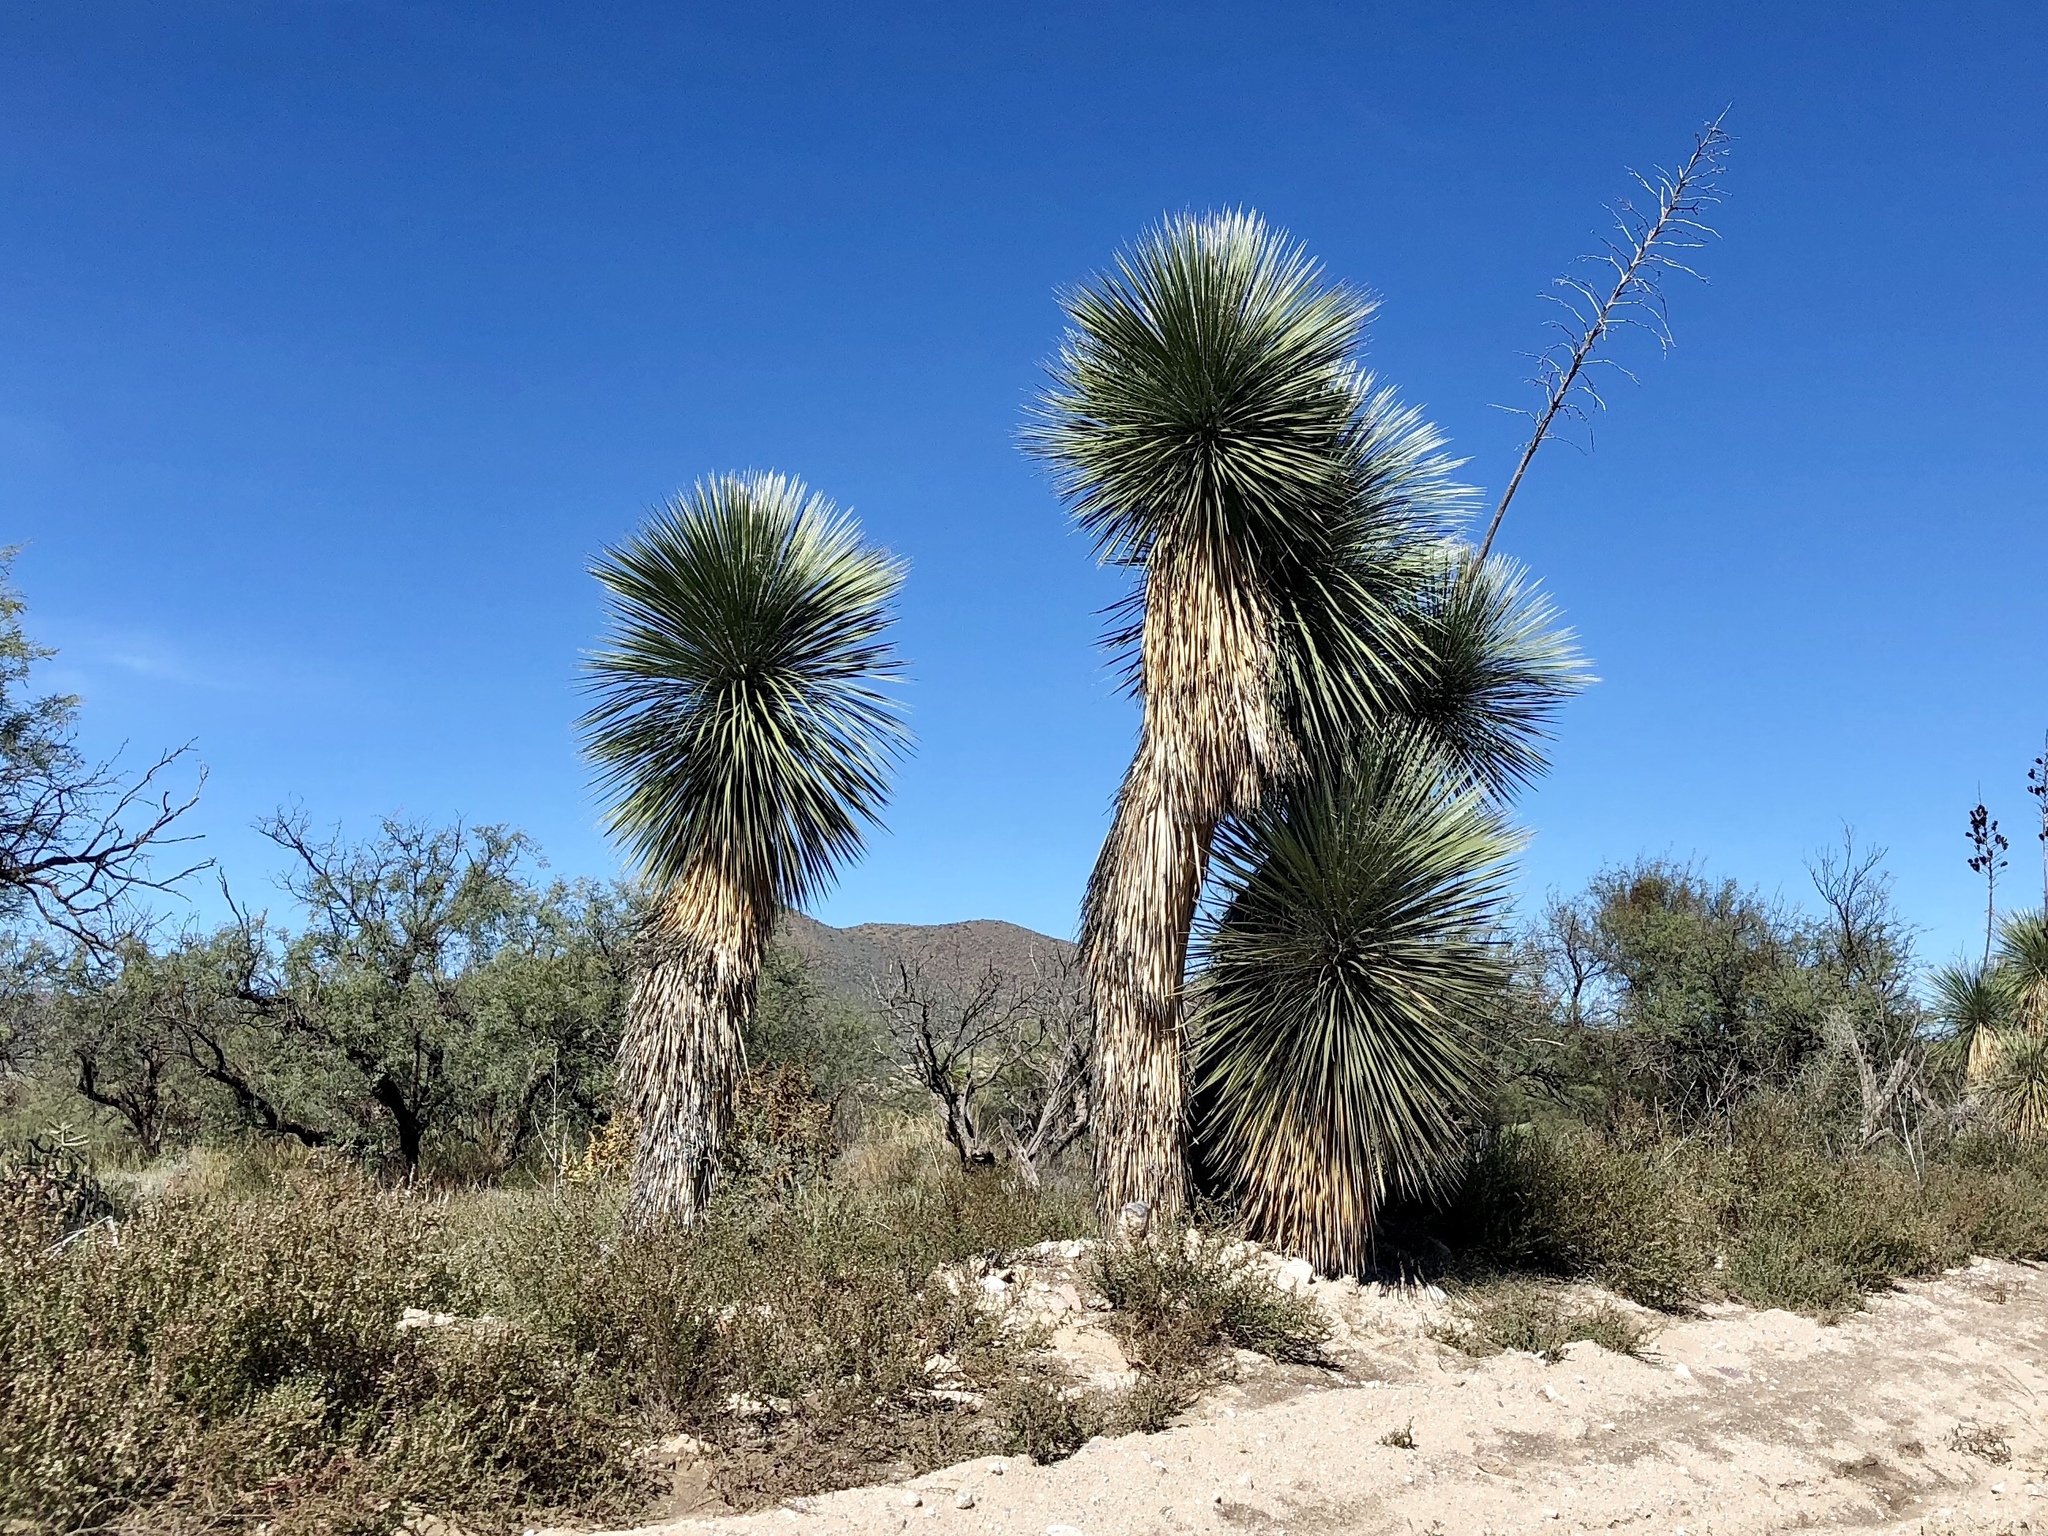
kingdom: Plantae
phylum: Tracheophyta
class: Liliopsida
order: Asparagales
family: Asparagaceae
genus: Yucca
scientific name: Yucca elata
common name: Palmella
